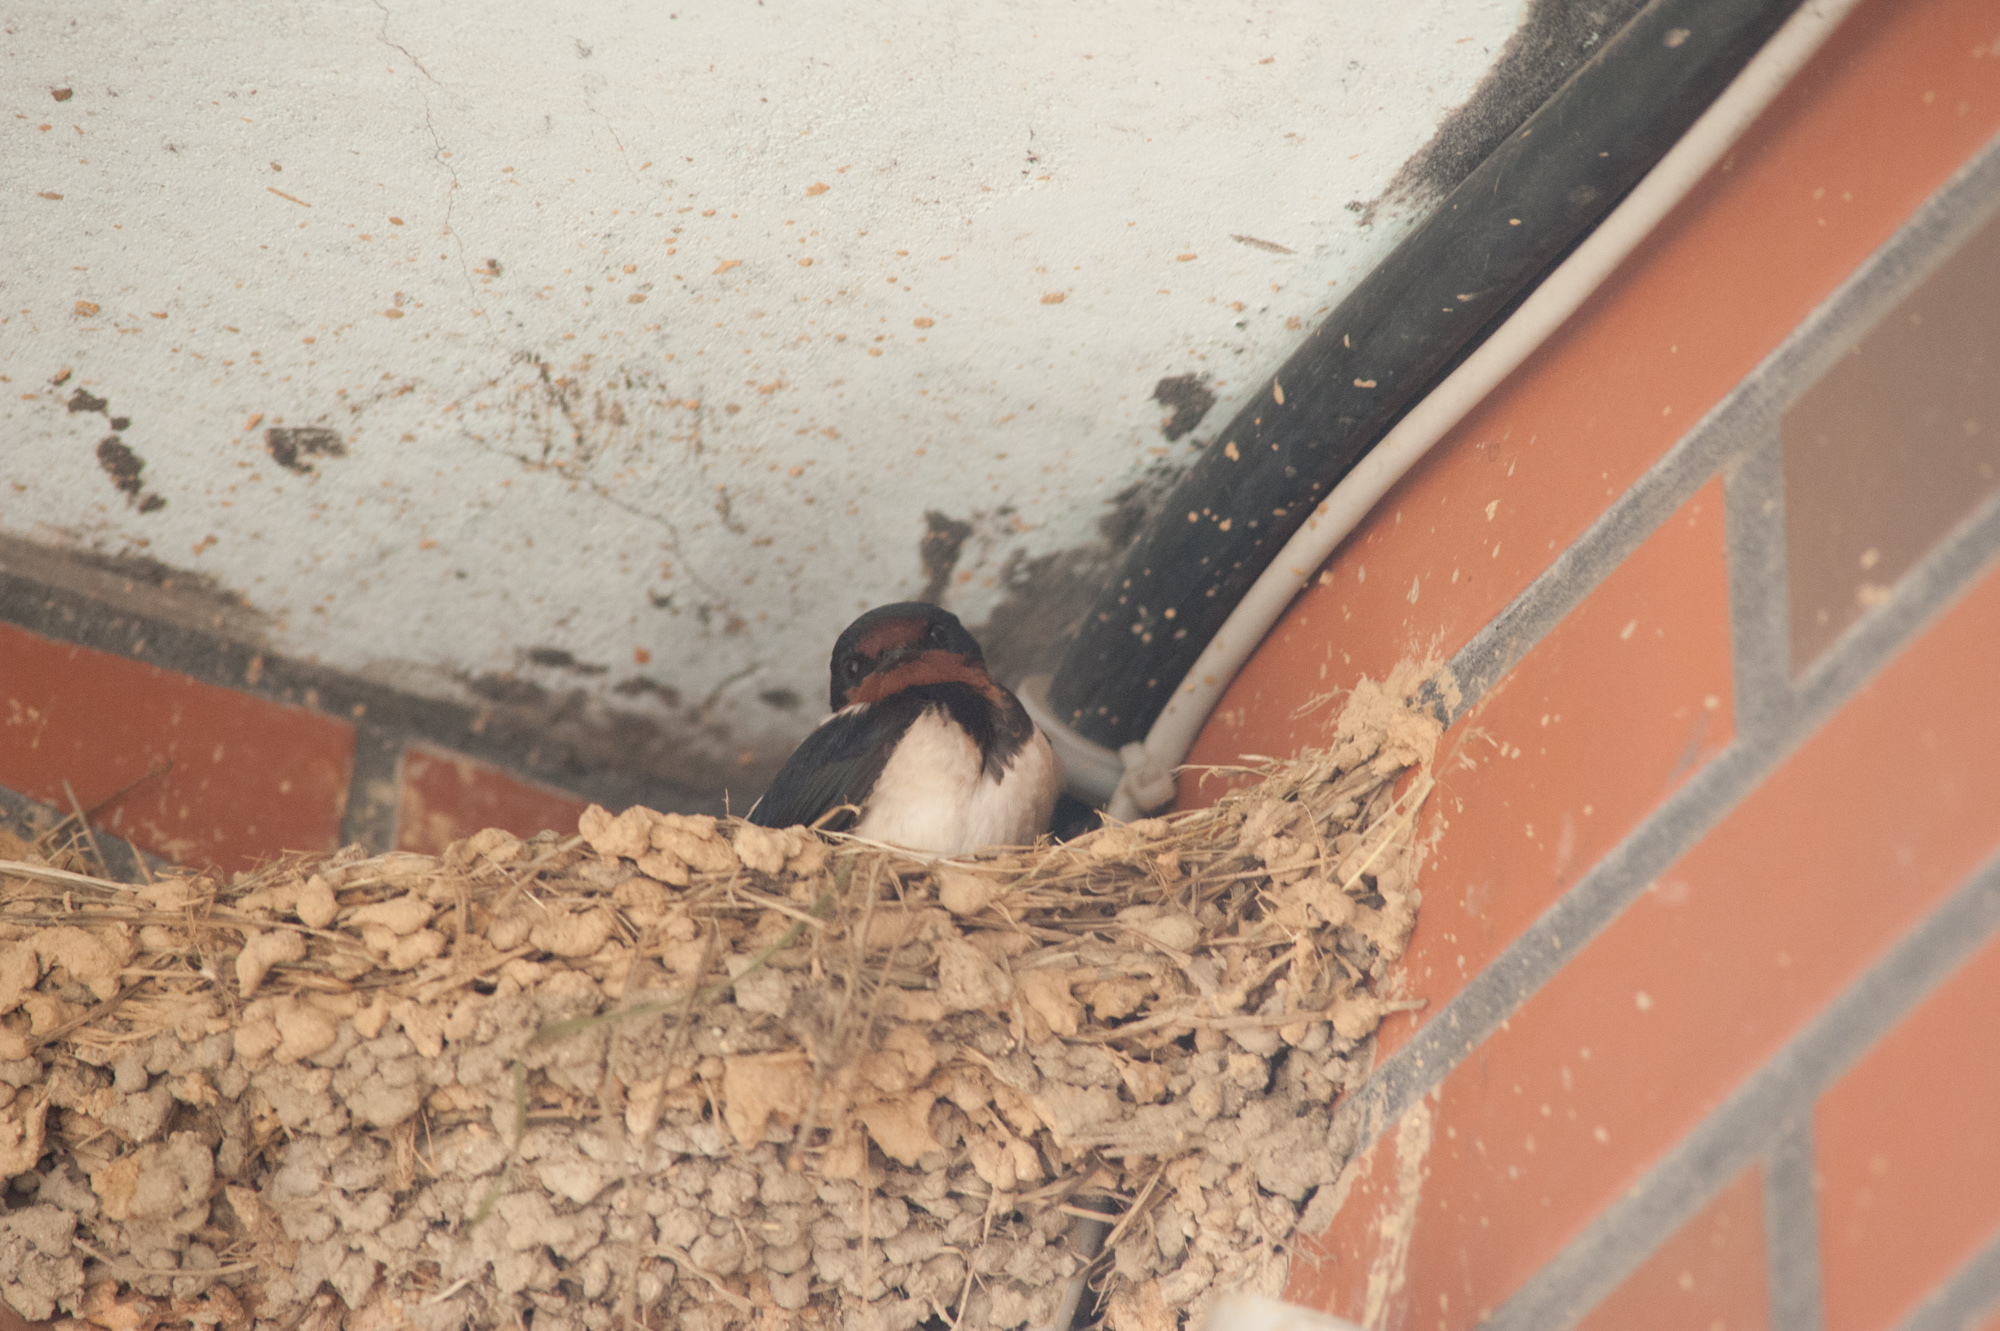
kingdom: Animalia
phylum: Chordata
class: Aves
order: Passeriformes
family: Hirundinidae
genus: Hirundo
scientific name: Hirundo rustica
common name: Barn swallow
